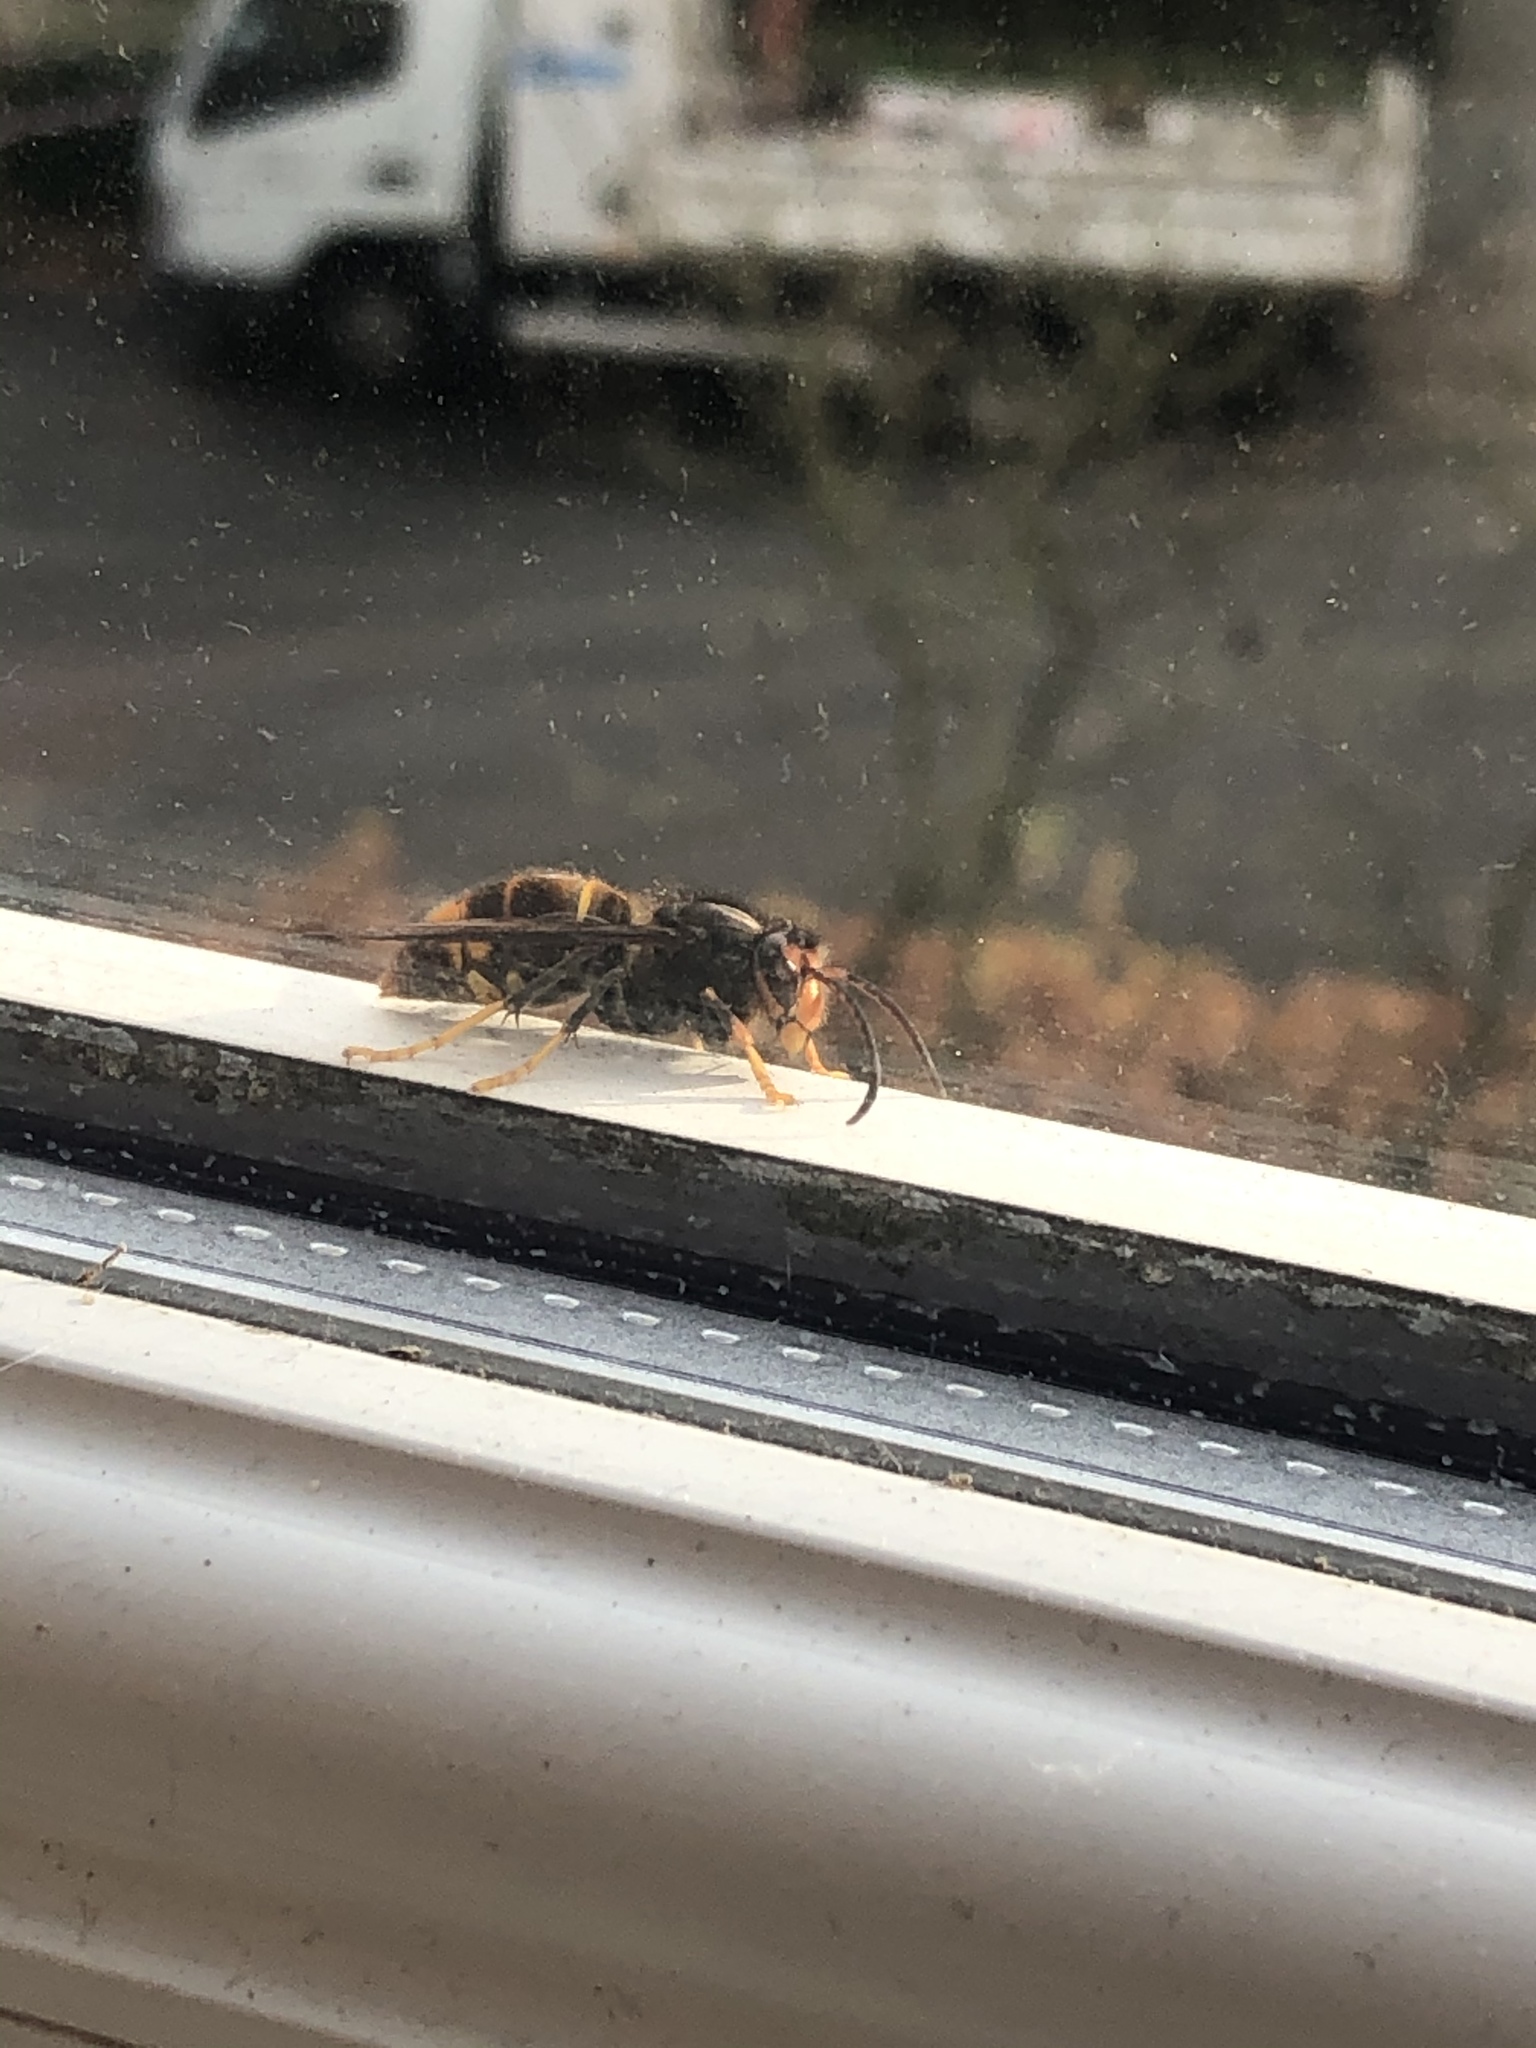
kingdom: Animalia
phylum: Arthropoda
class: Insecta
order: Hymenoptera
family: Vespidae
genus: Vespa
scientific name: Vespa velutina
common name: Asian hornet
